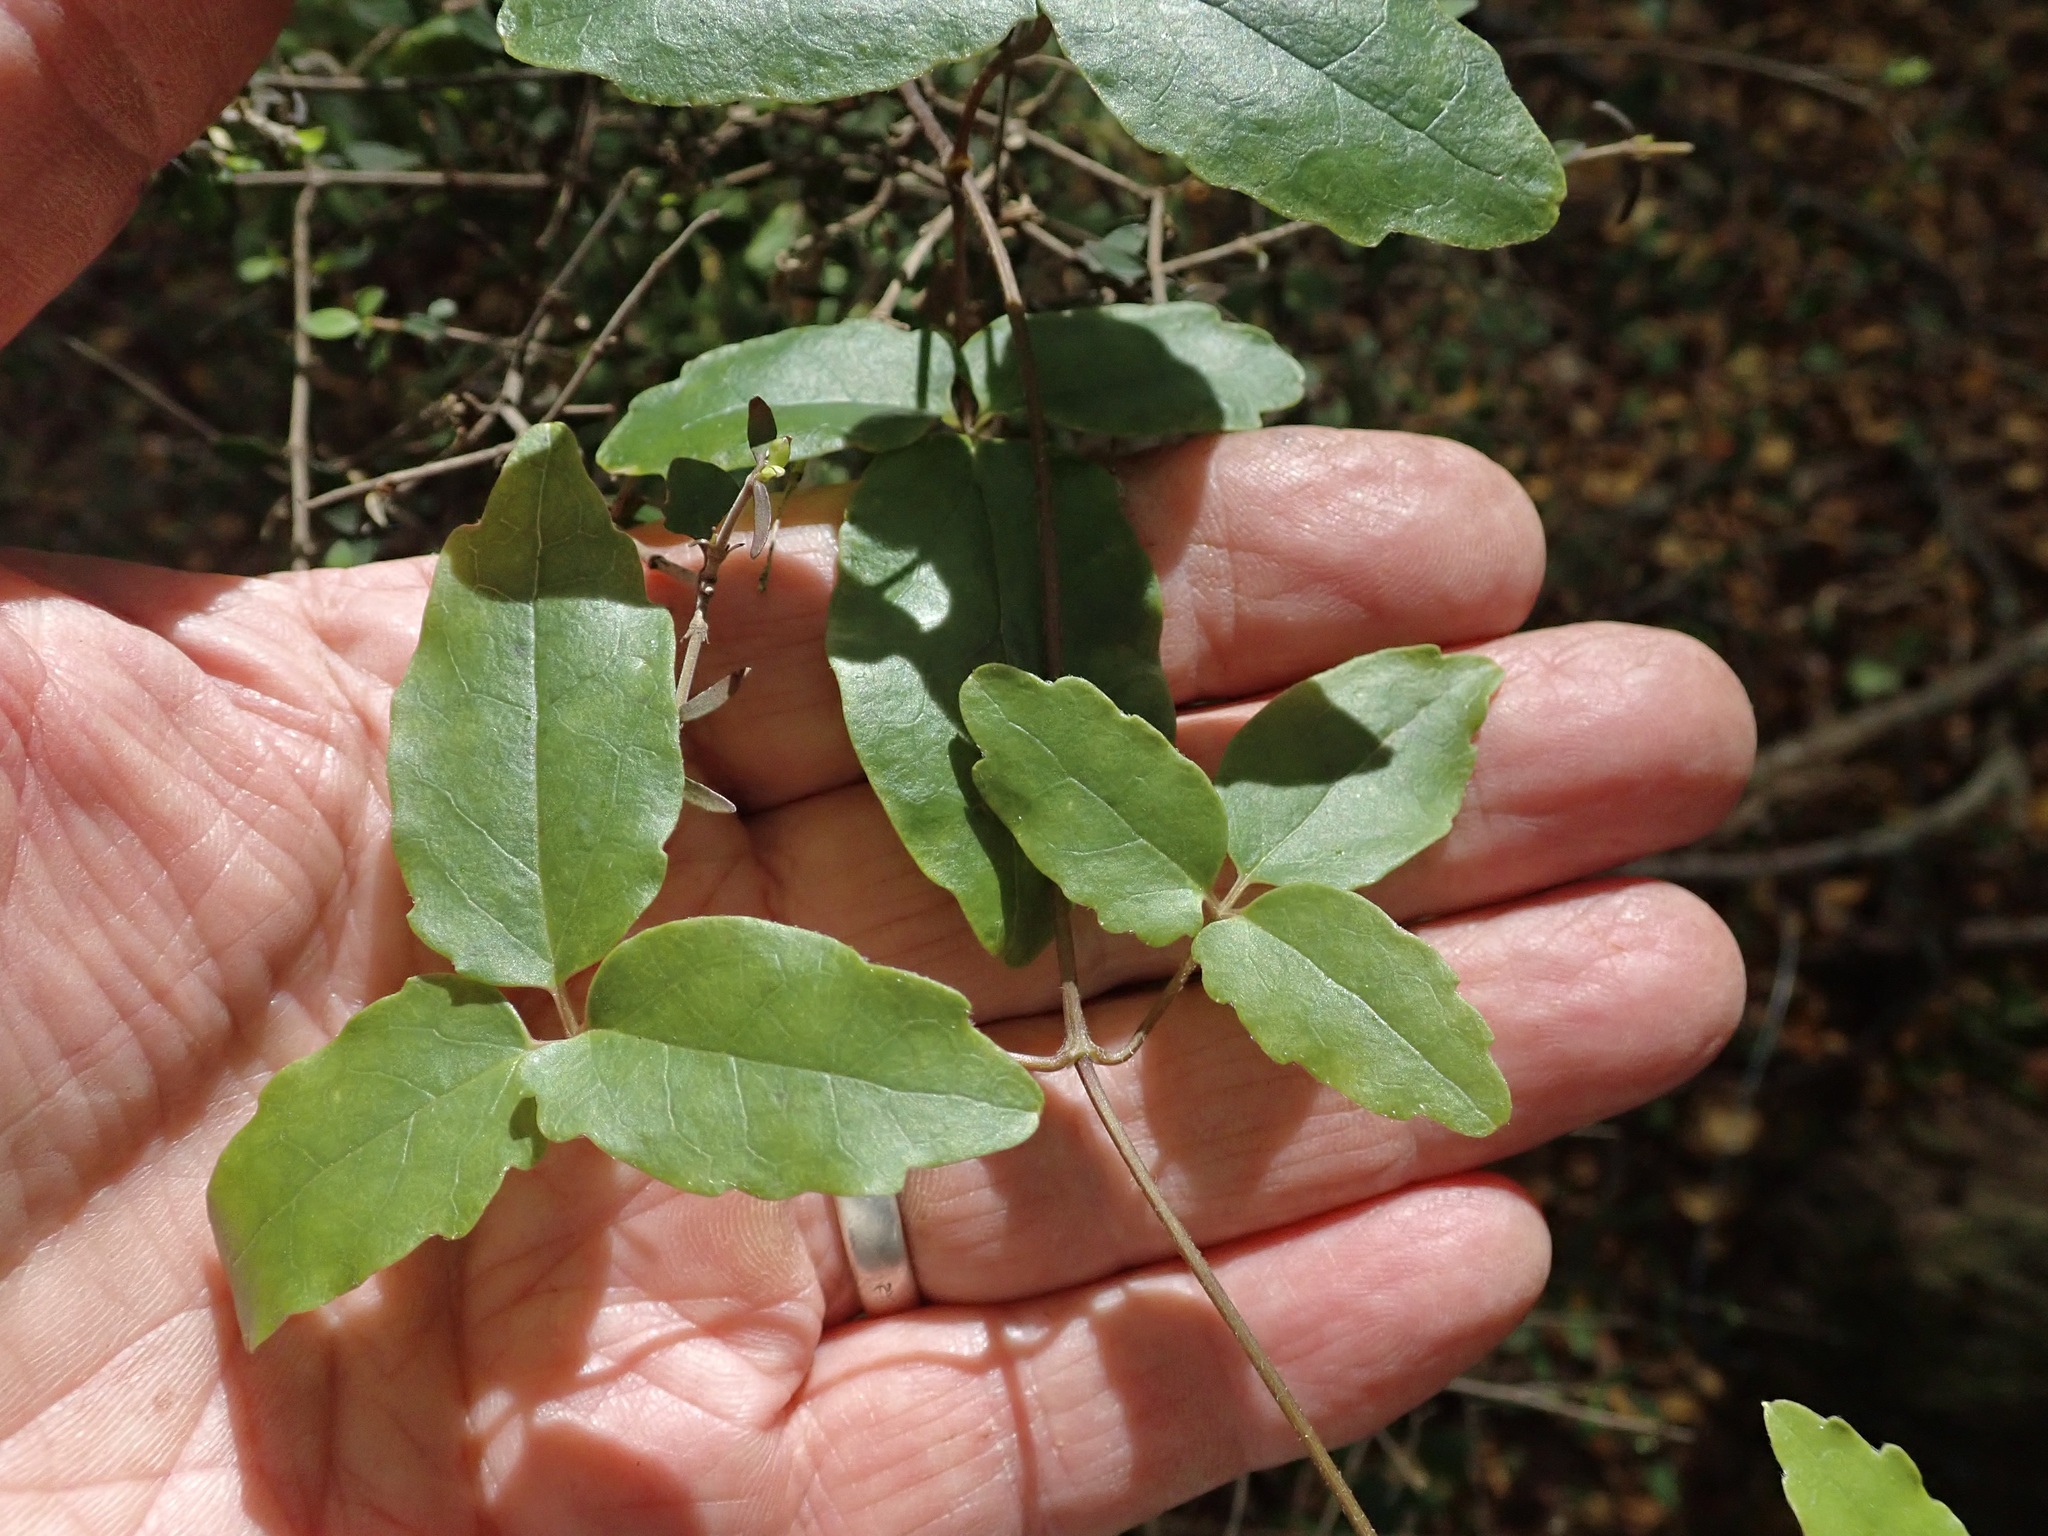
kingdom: Plantae
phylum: Tracheophyta
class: Magnoliopsida
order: Ranunculales
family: Ranunculaceae
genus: Clematis
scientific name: Clematis paniculata
